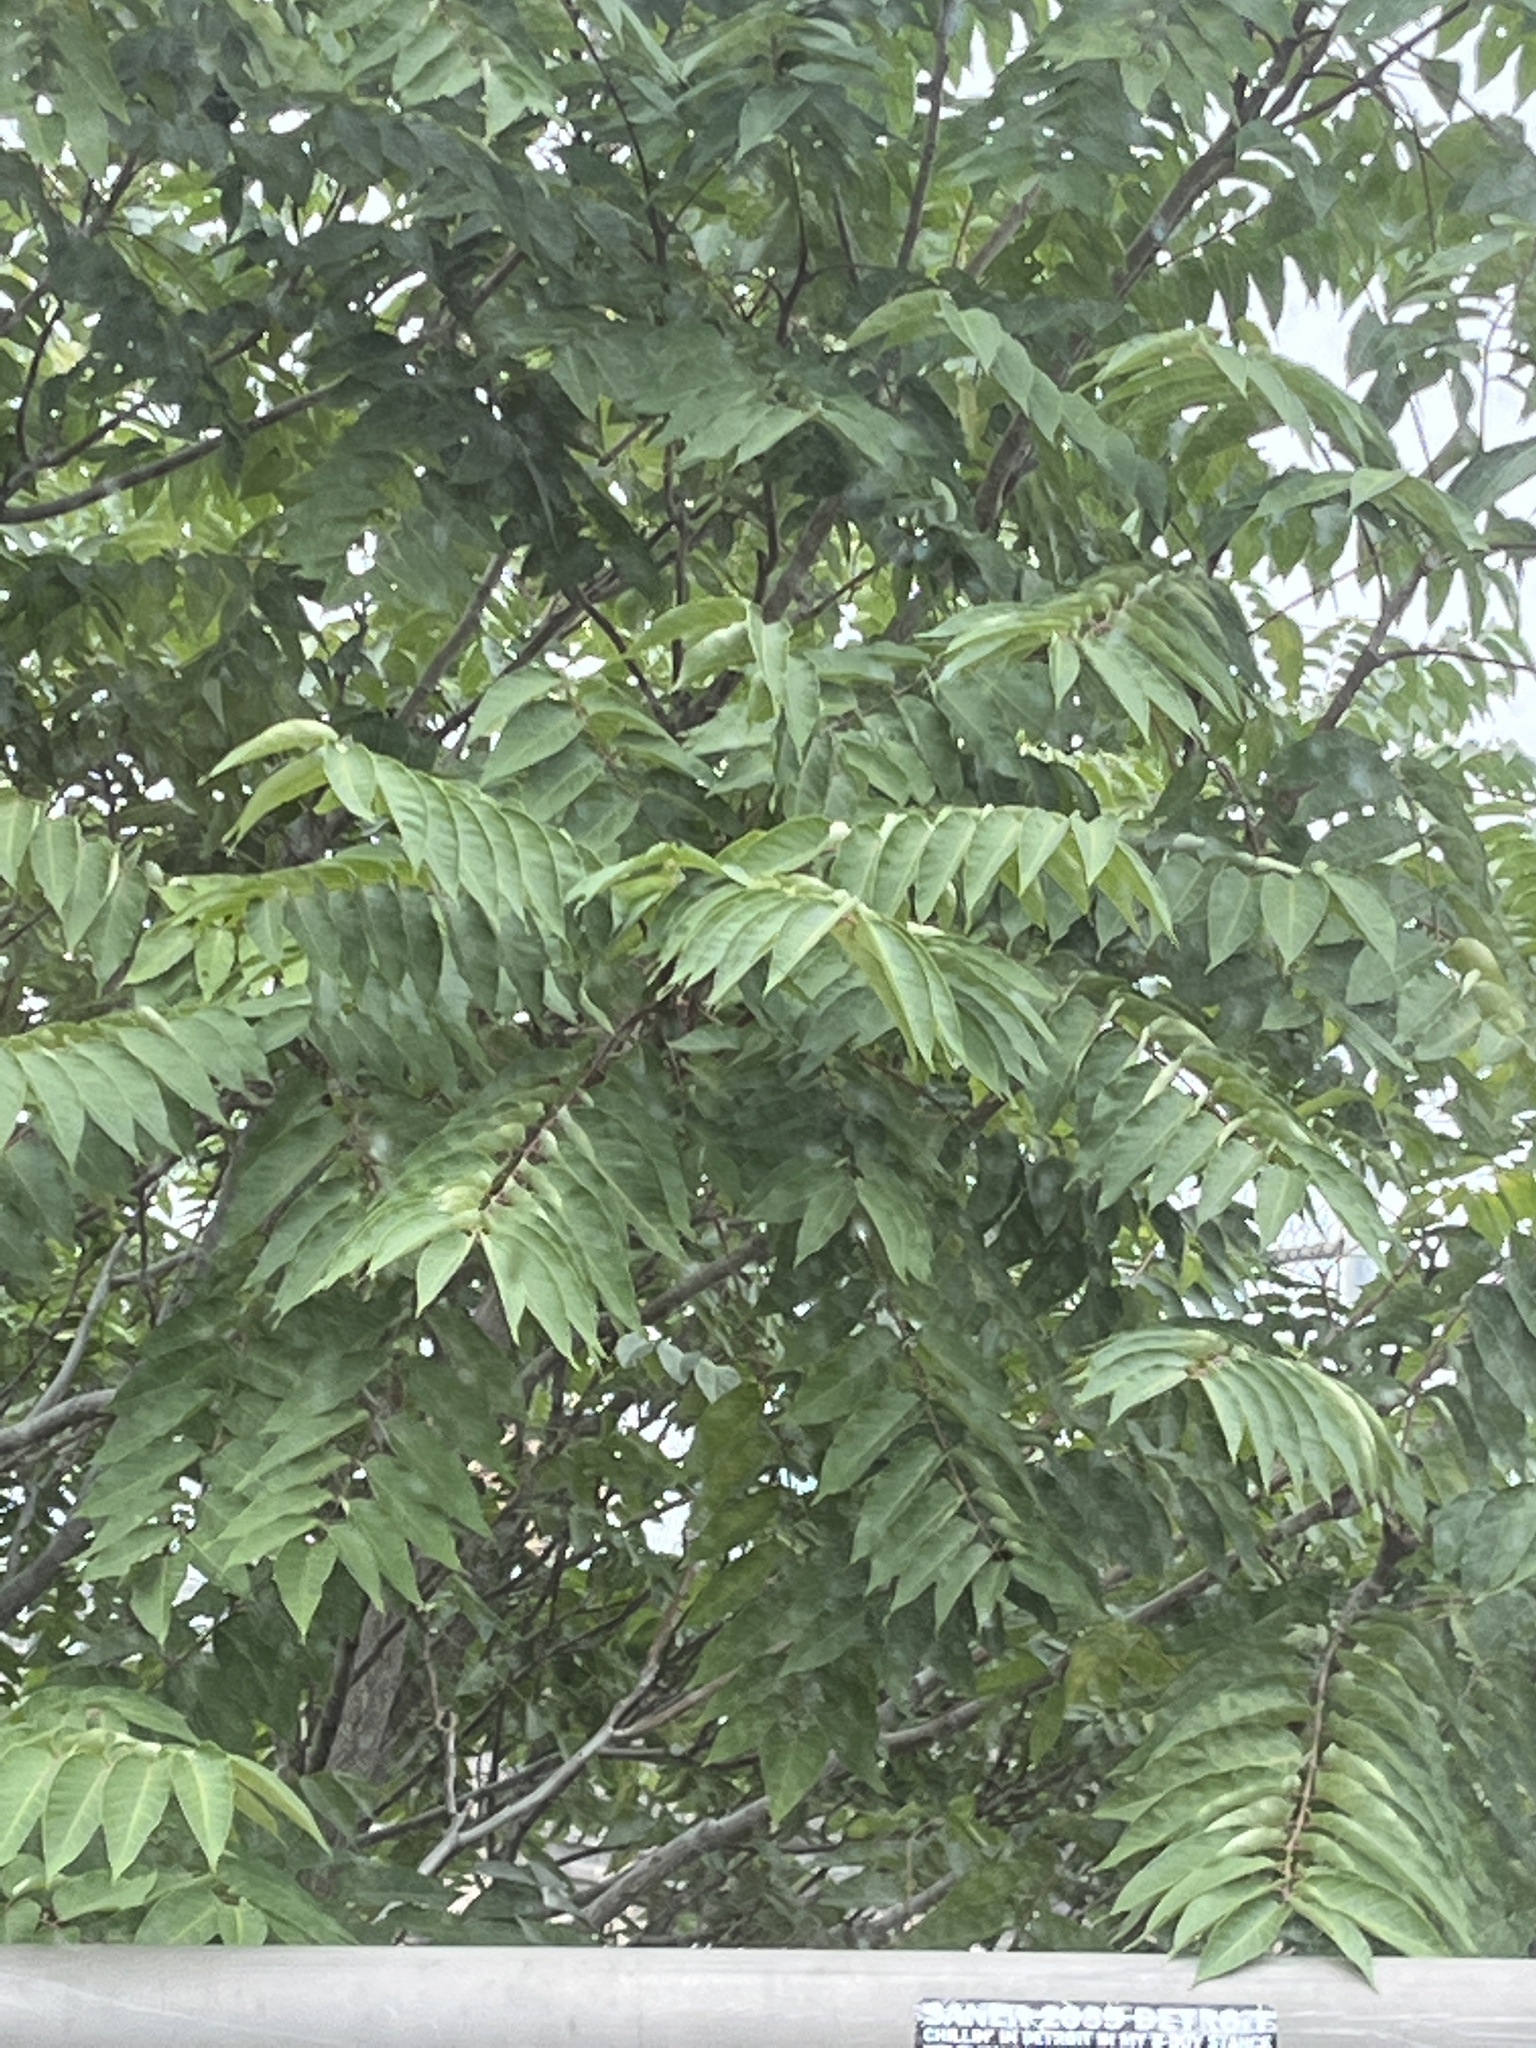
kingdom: Plantae
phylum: Tracheophyta
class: Magnoliopsida
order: Sapindales
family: Simaroubaceae
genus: Ailanthus
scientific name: Ailanthus altissima
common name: Tree-of-heaven
